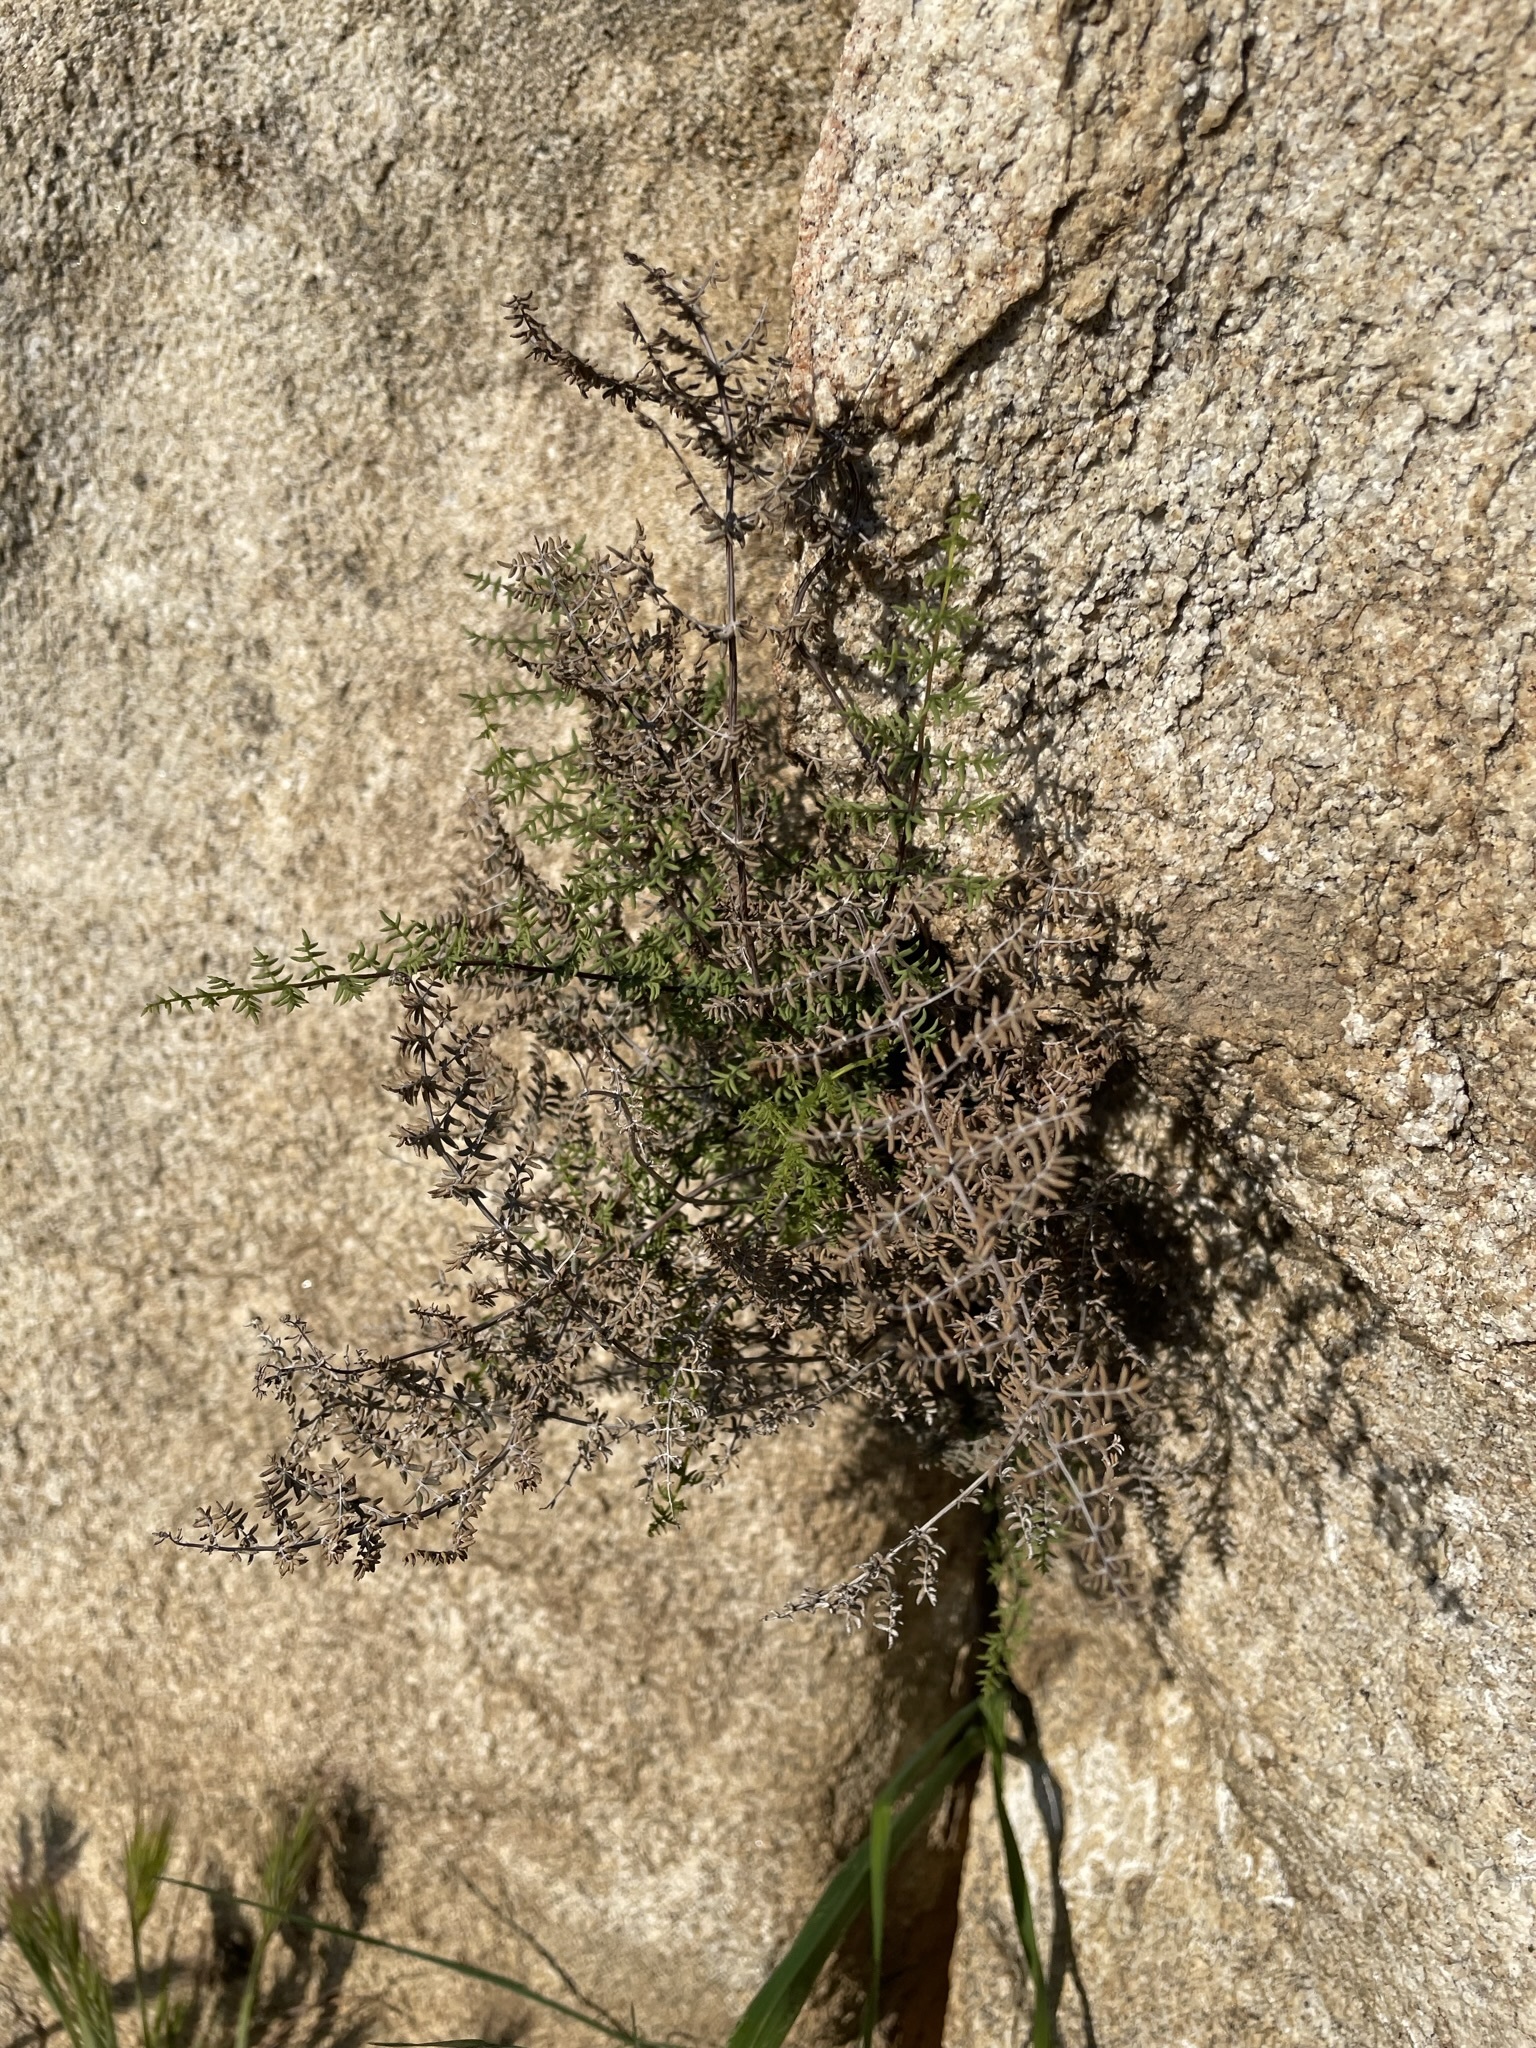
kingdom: Plantae
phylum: Tracheophyta
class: Polypodiopsida
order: Polypodiales
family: Pteridaceae
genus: Pellaea
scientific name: Pellaea mucronata
